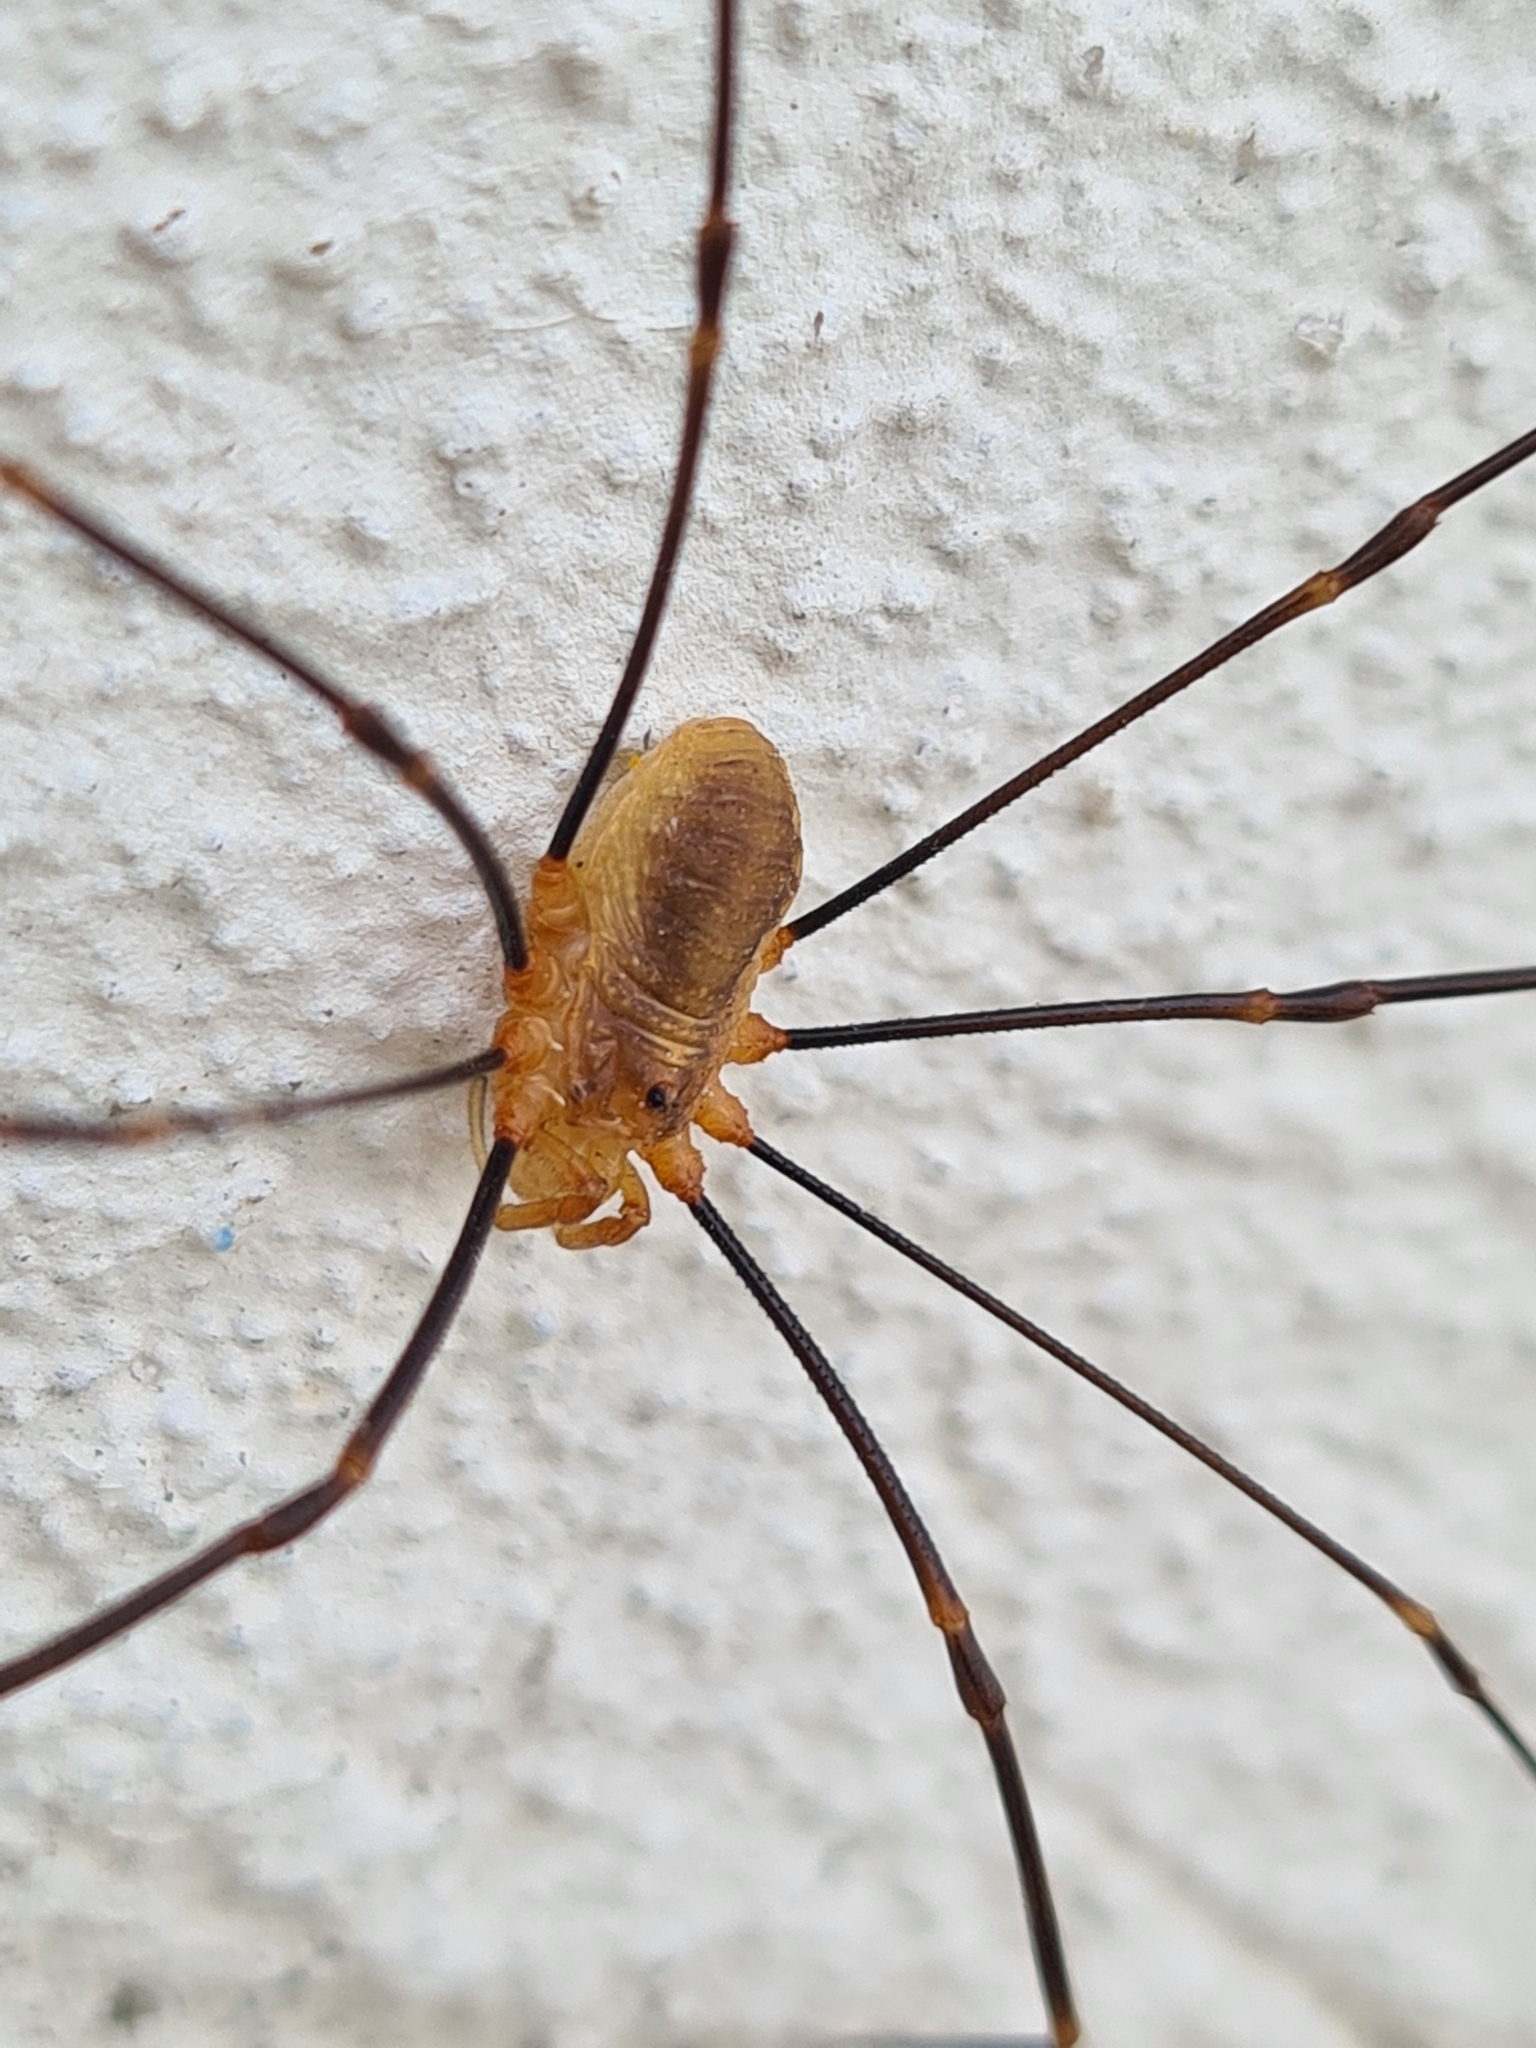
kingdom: Animalia
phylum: Arthropoda
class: Arachnida
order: Opiliones
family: Phalangiidae
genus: Opilio
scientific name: Opilio canestrinii
